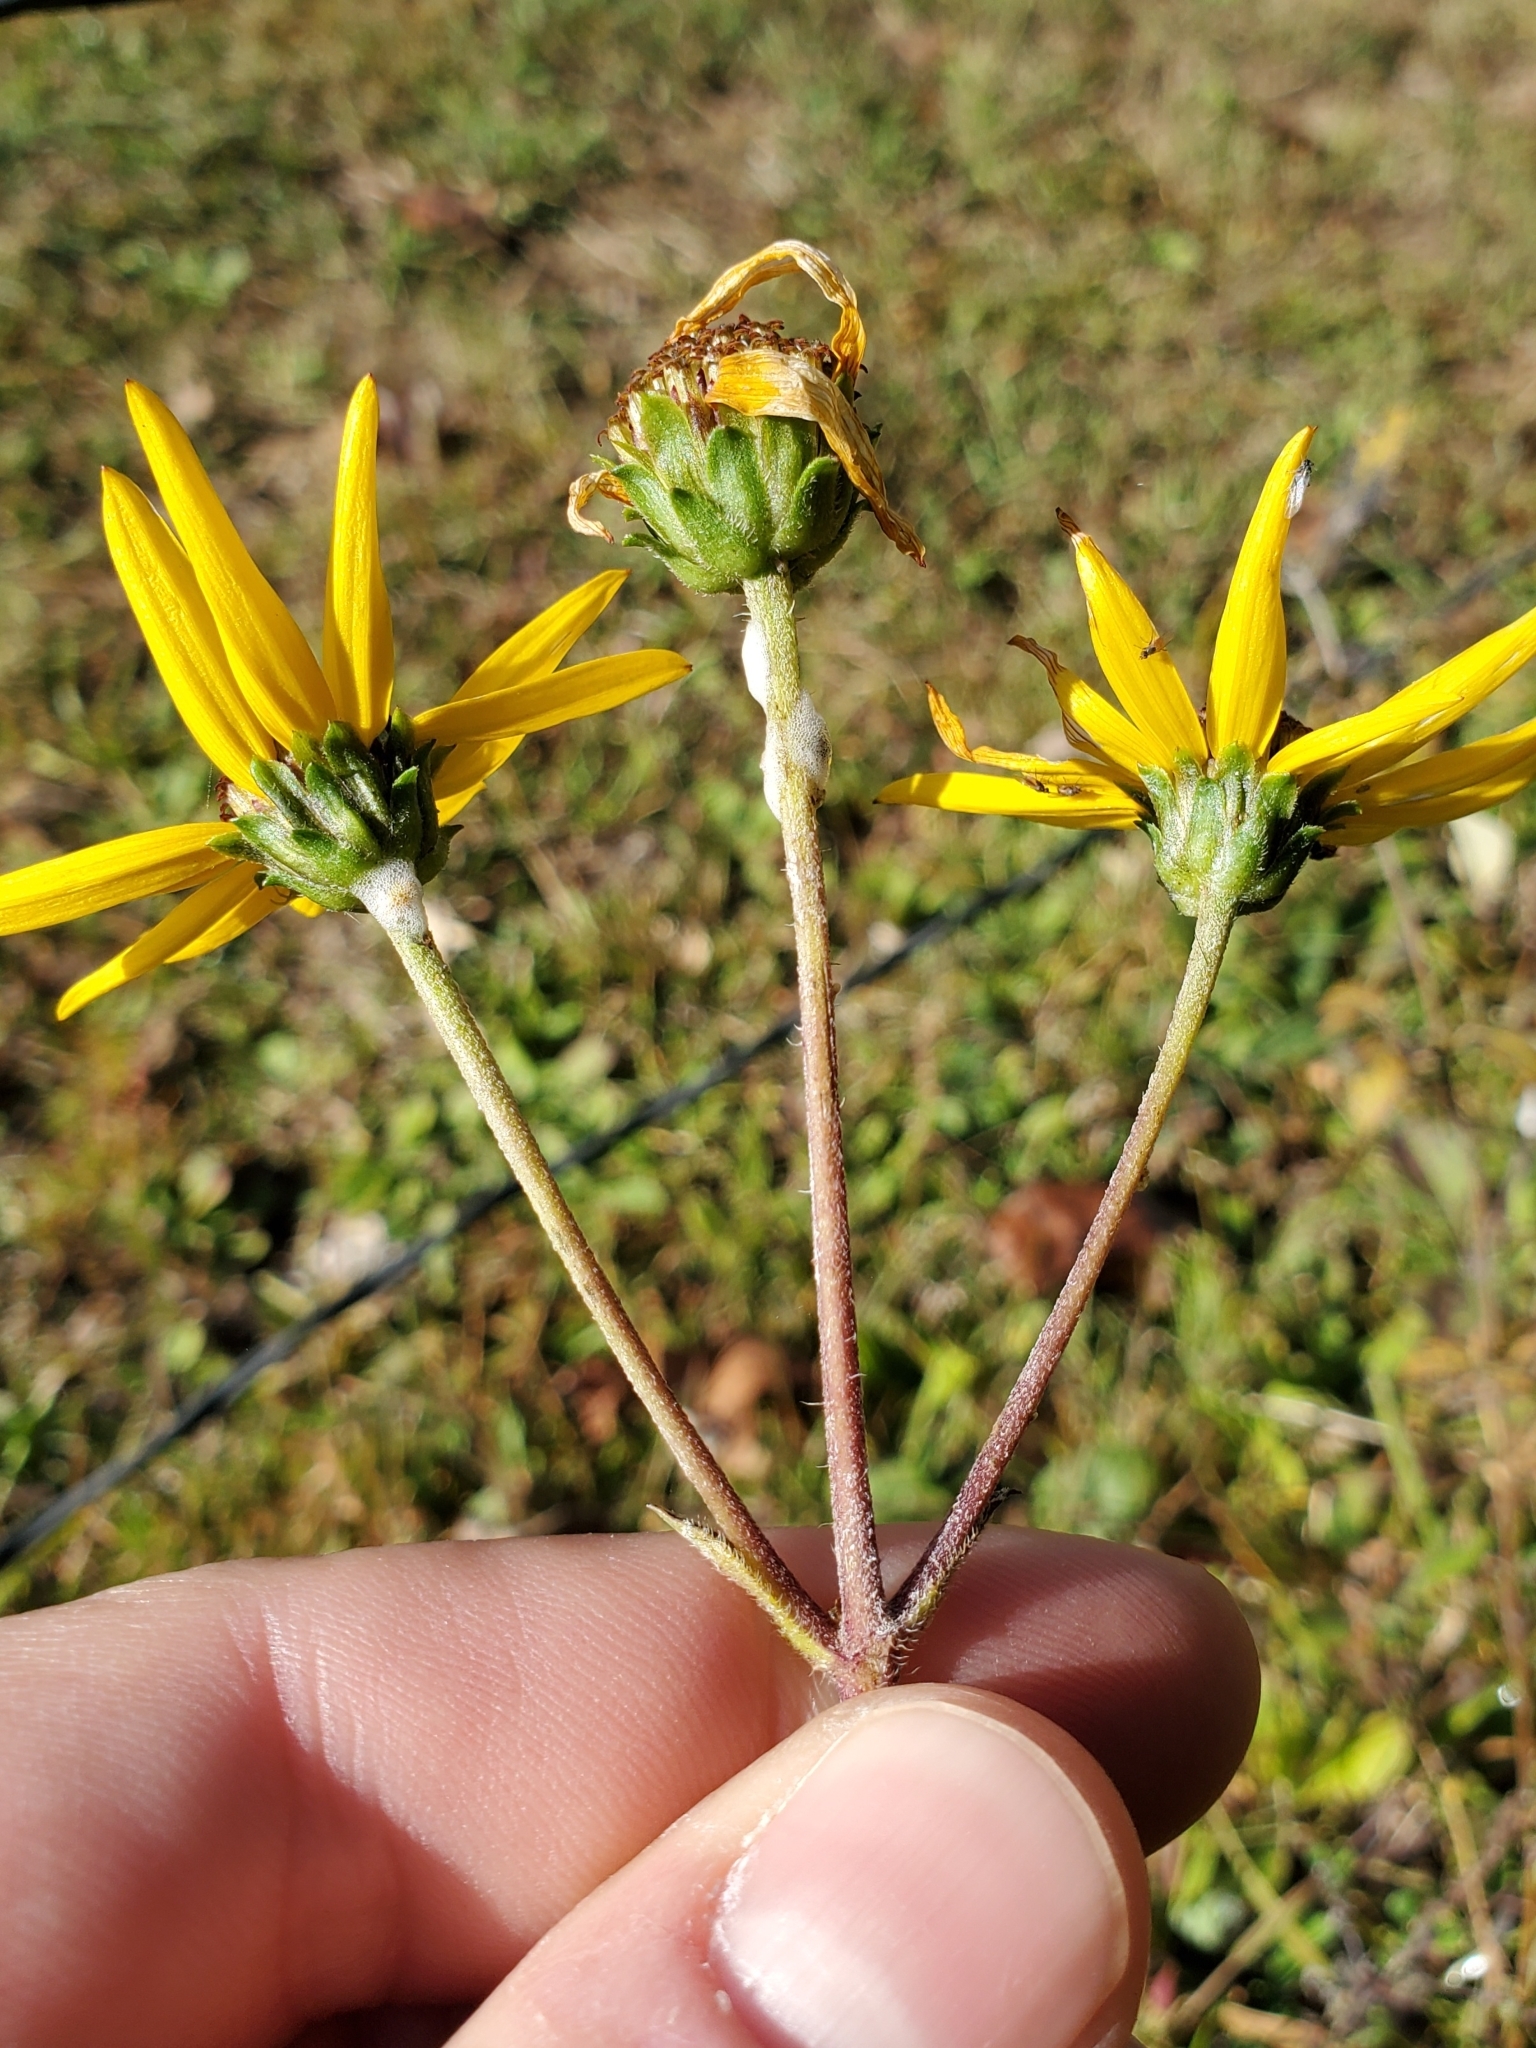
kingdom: Plantae
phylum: Tracheophyta
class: Magnoliopsida
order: Asterales
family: Asteraceae
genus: Helianthus
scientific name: Helianthus atrorubens
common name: Dark-eyed sunflower
